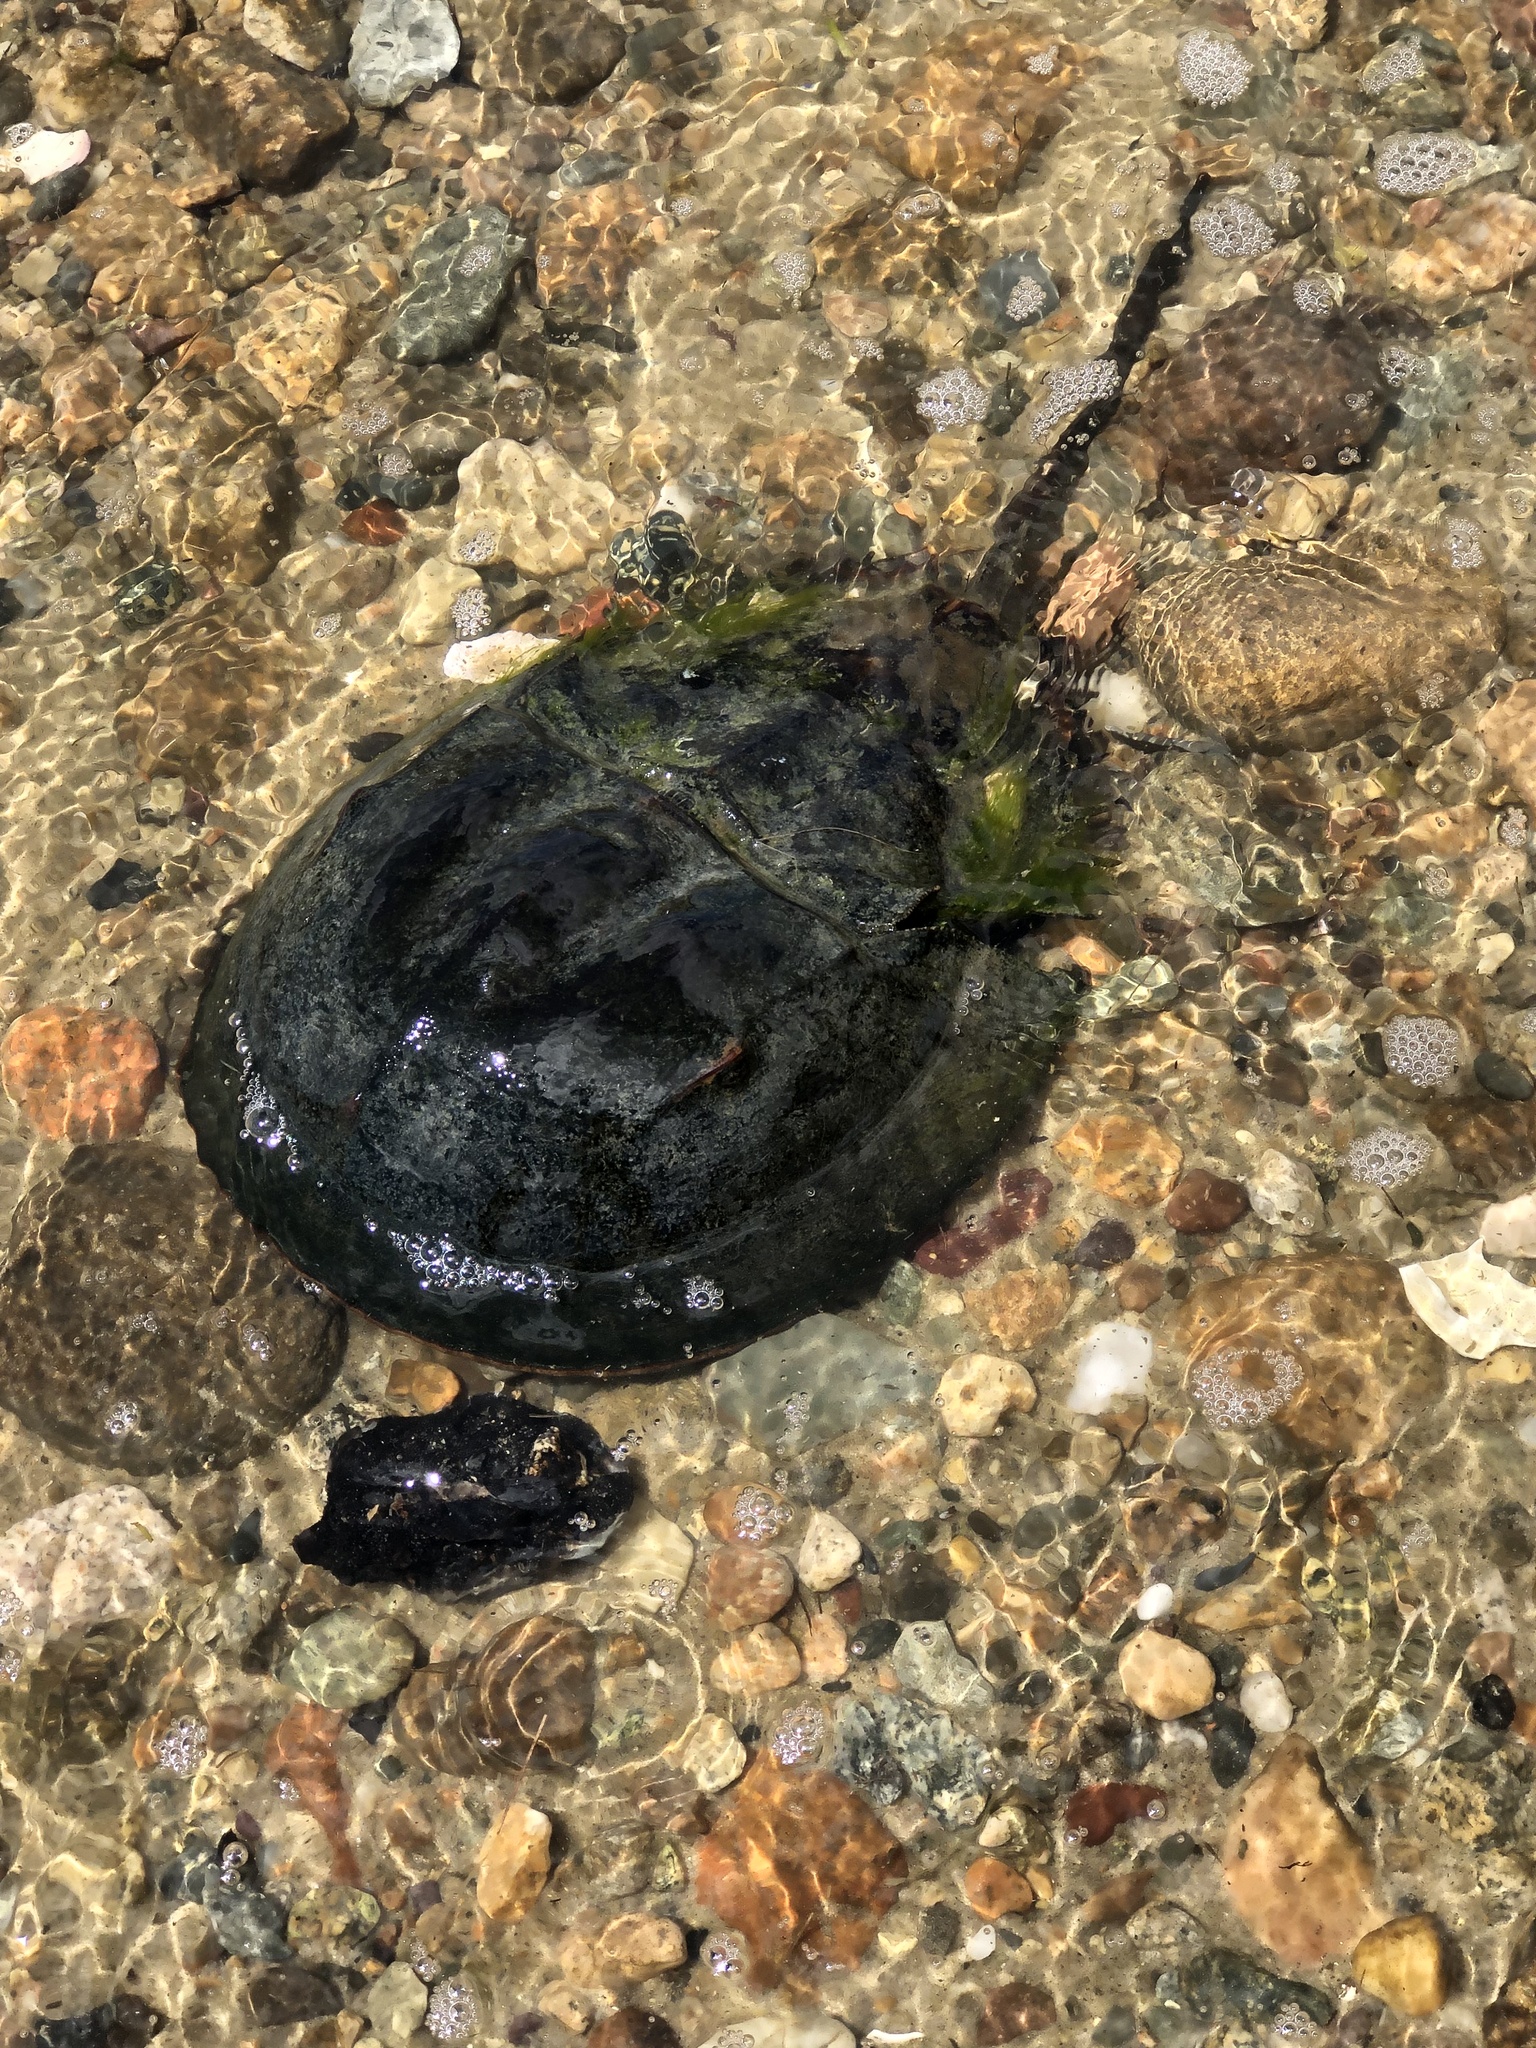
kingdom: Animalia
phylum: Arthropoda
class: Merostomata
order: Xiphosurida
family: Limulidae
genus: Limulus
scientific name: Limulus polyphemus
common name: Horseshoe crab
